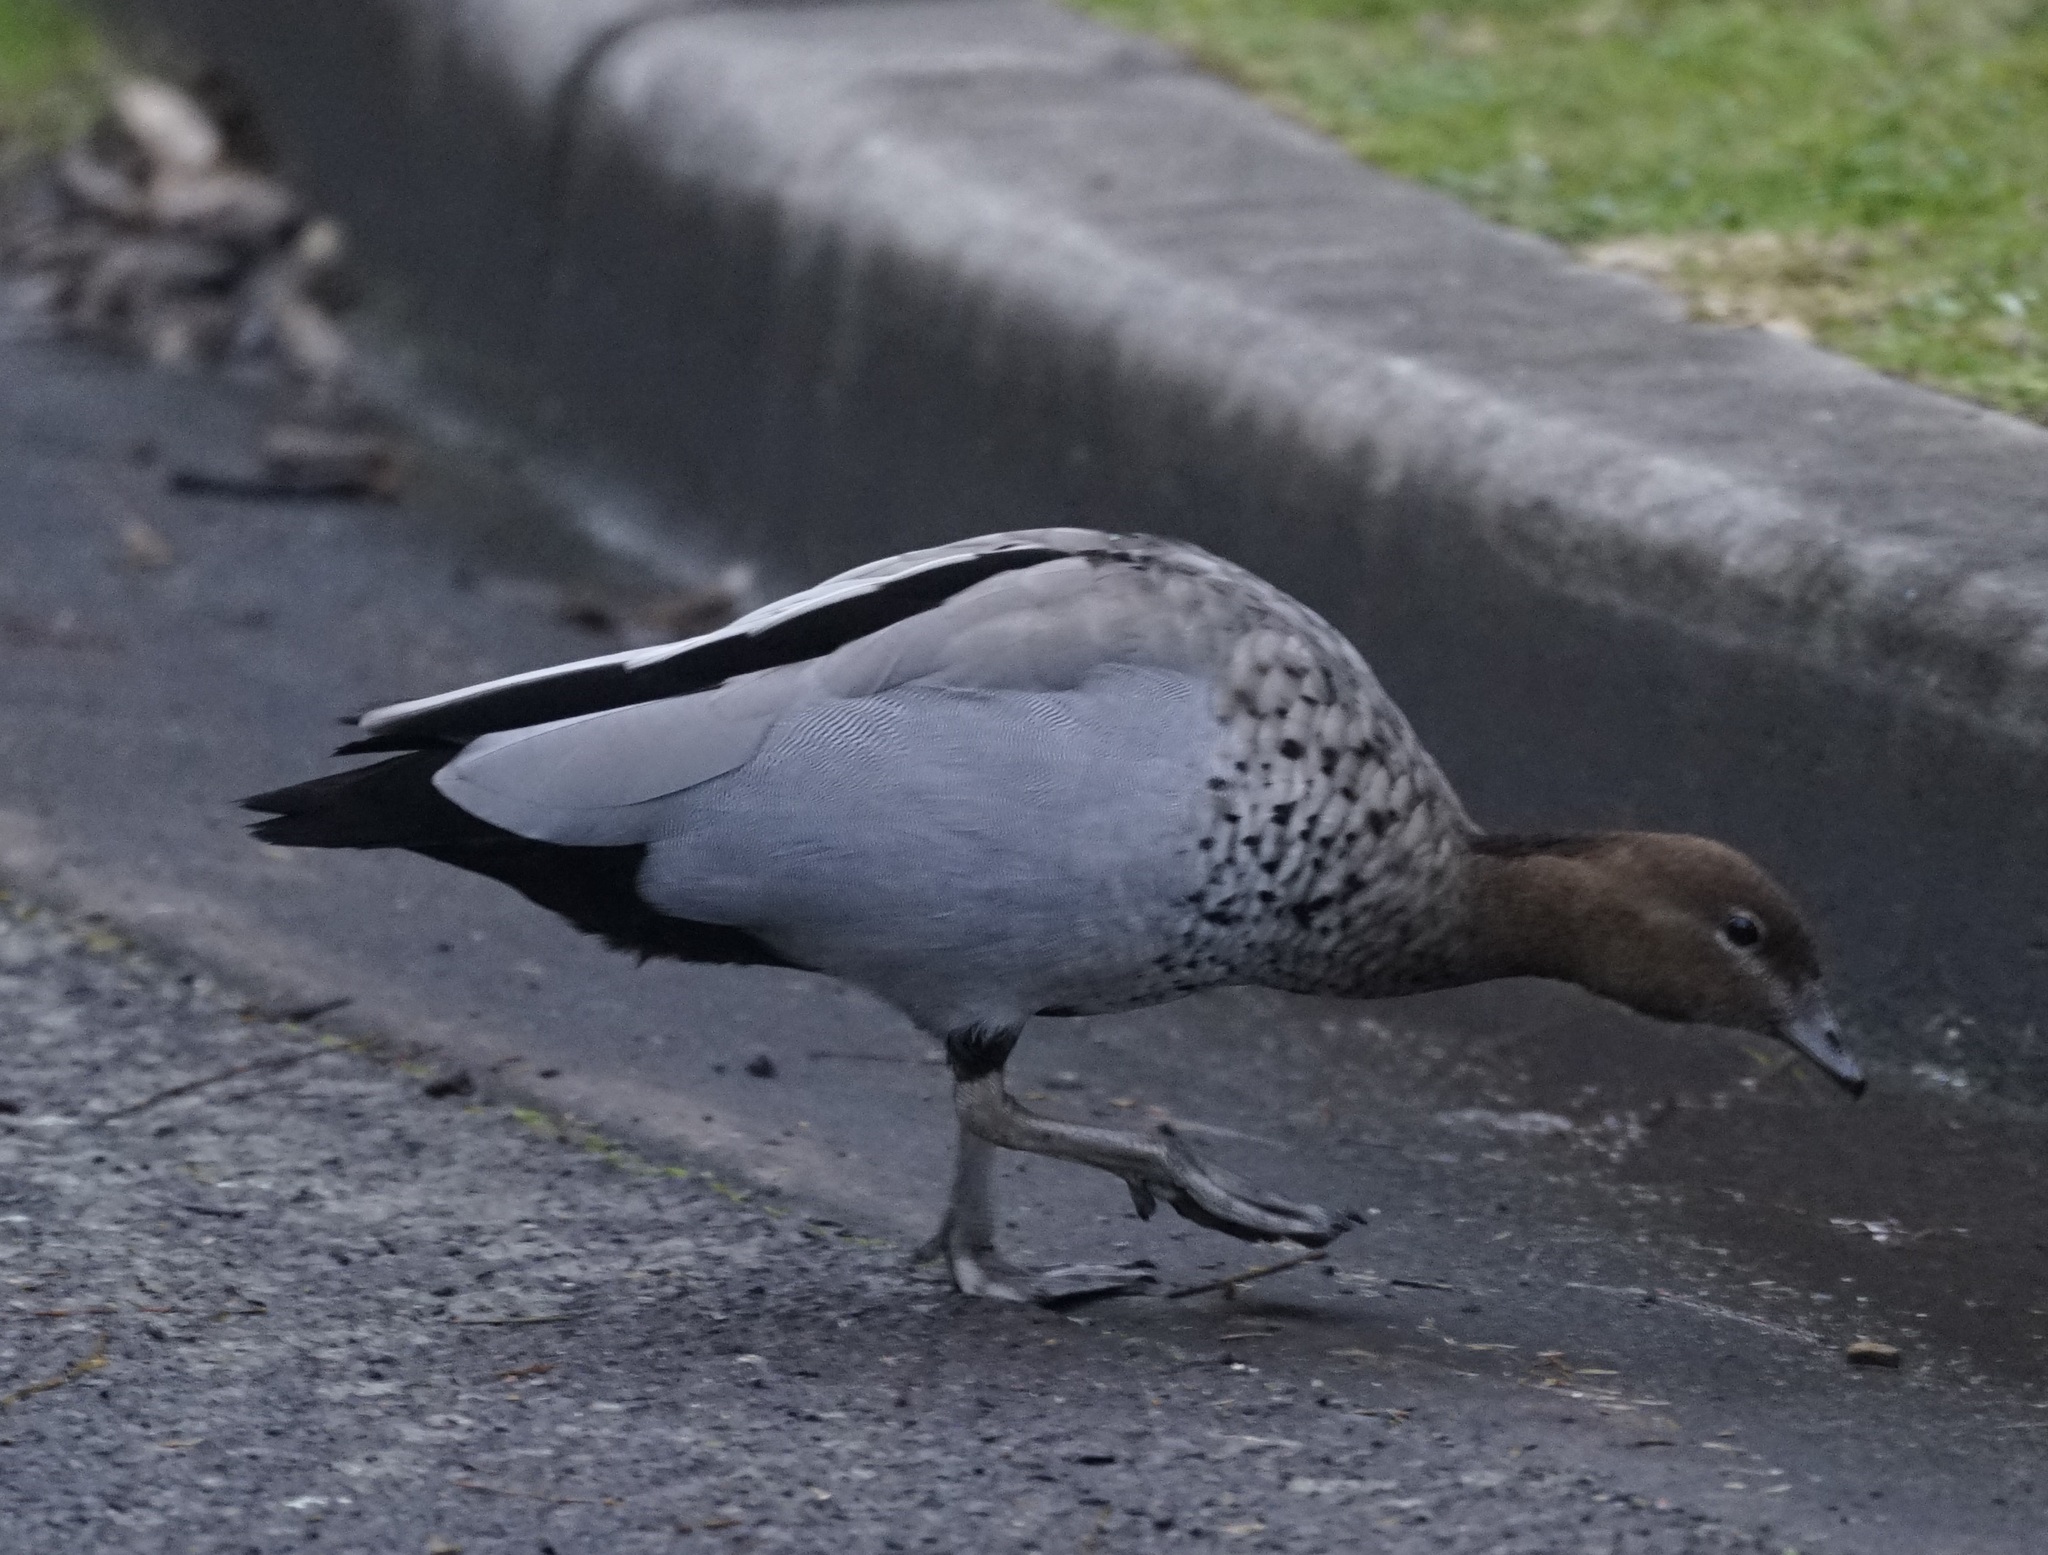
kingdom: Animalia
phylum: Chordata
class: Aves
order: Anseriformes
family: Anatidae
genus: Chenonetta
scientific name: Chenonetta jubata
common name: Maned duck
